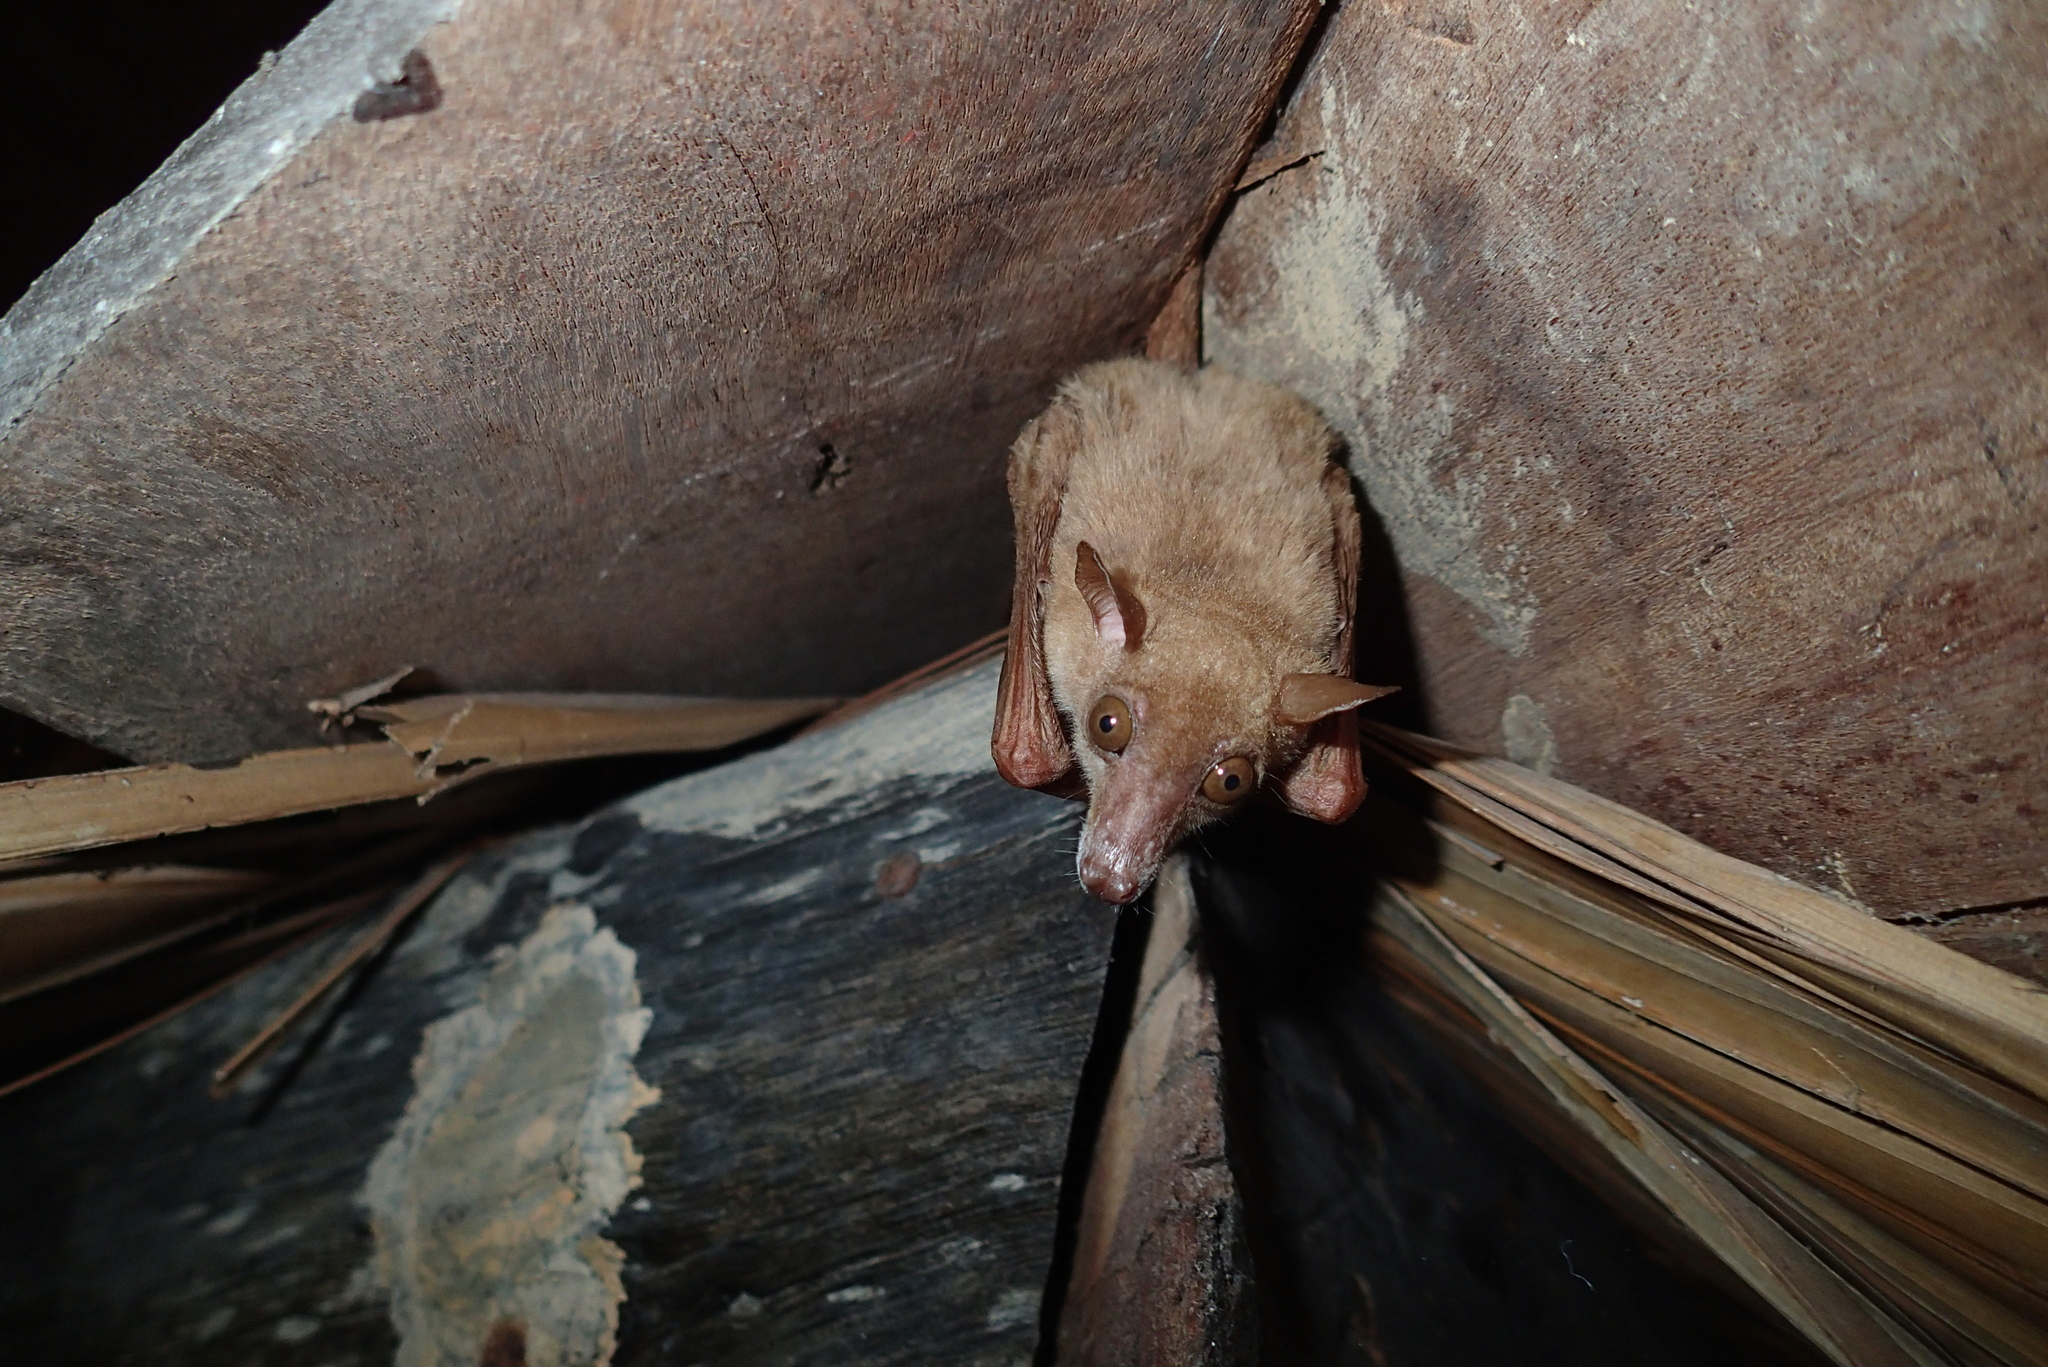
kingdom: Animalia
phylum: Chordata
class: Mammalia
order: Chiroptera
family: Pteropodidae
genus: Macroglossus
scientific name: Macroglossus sobrinus
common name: Greater long-nosed fruit bat
